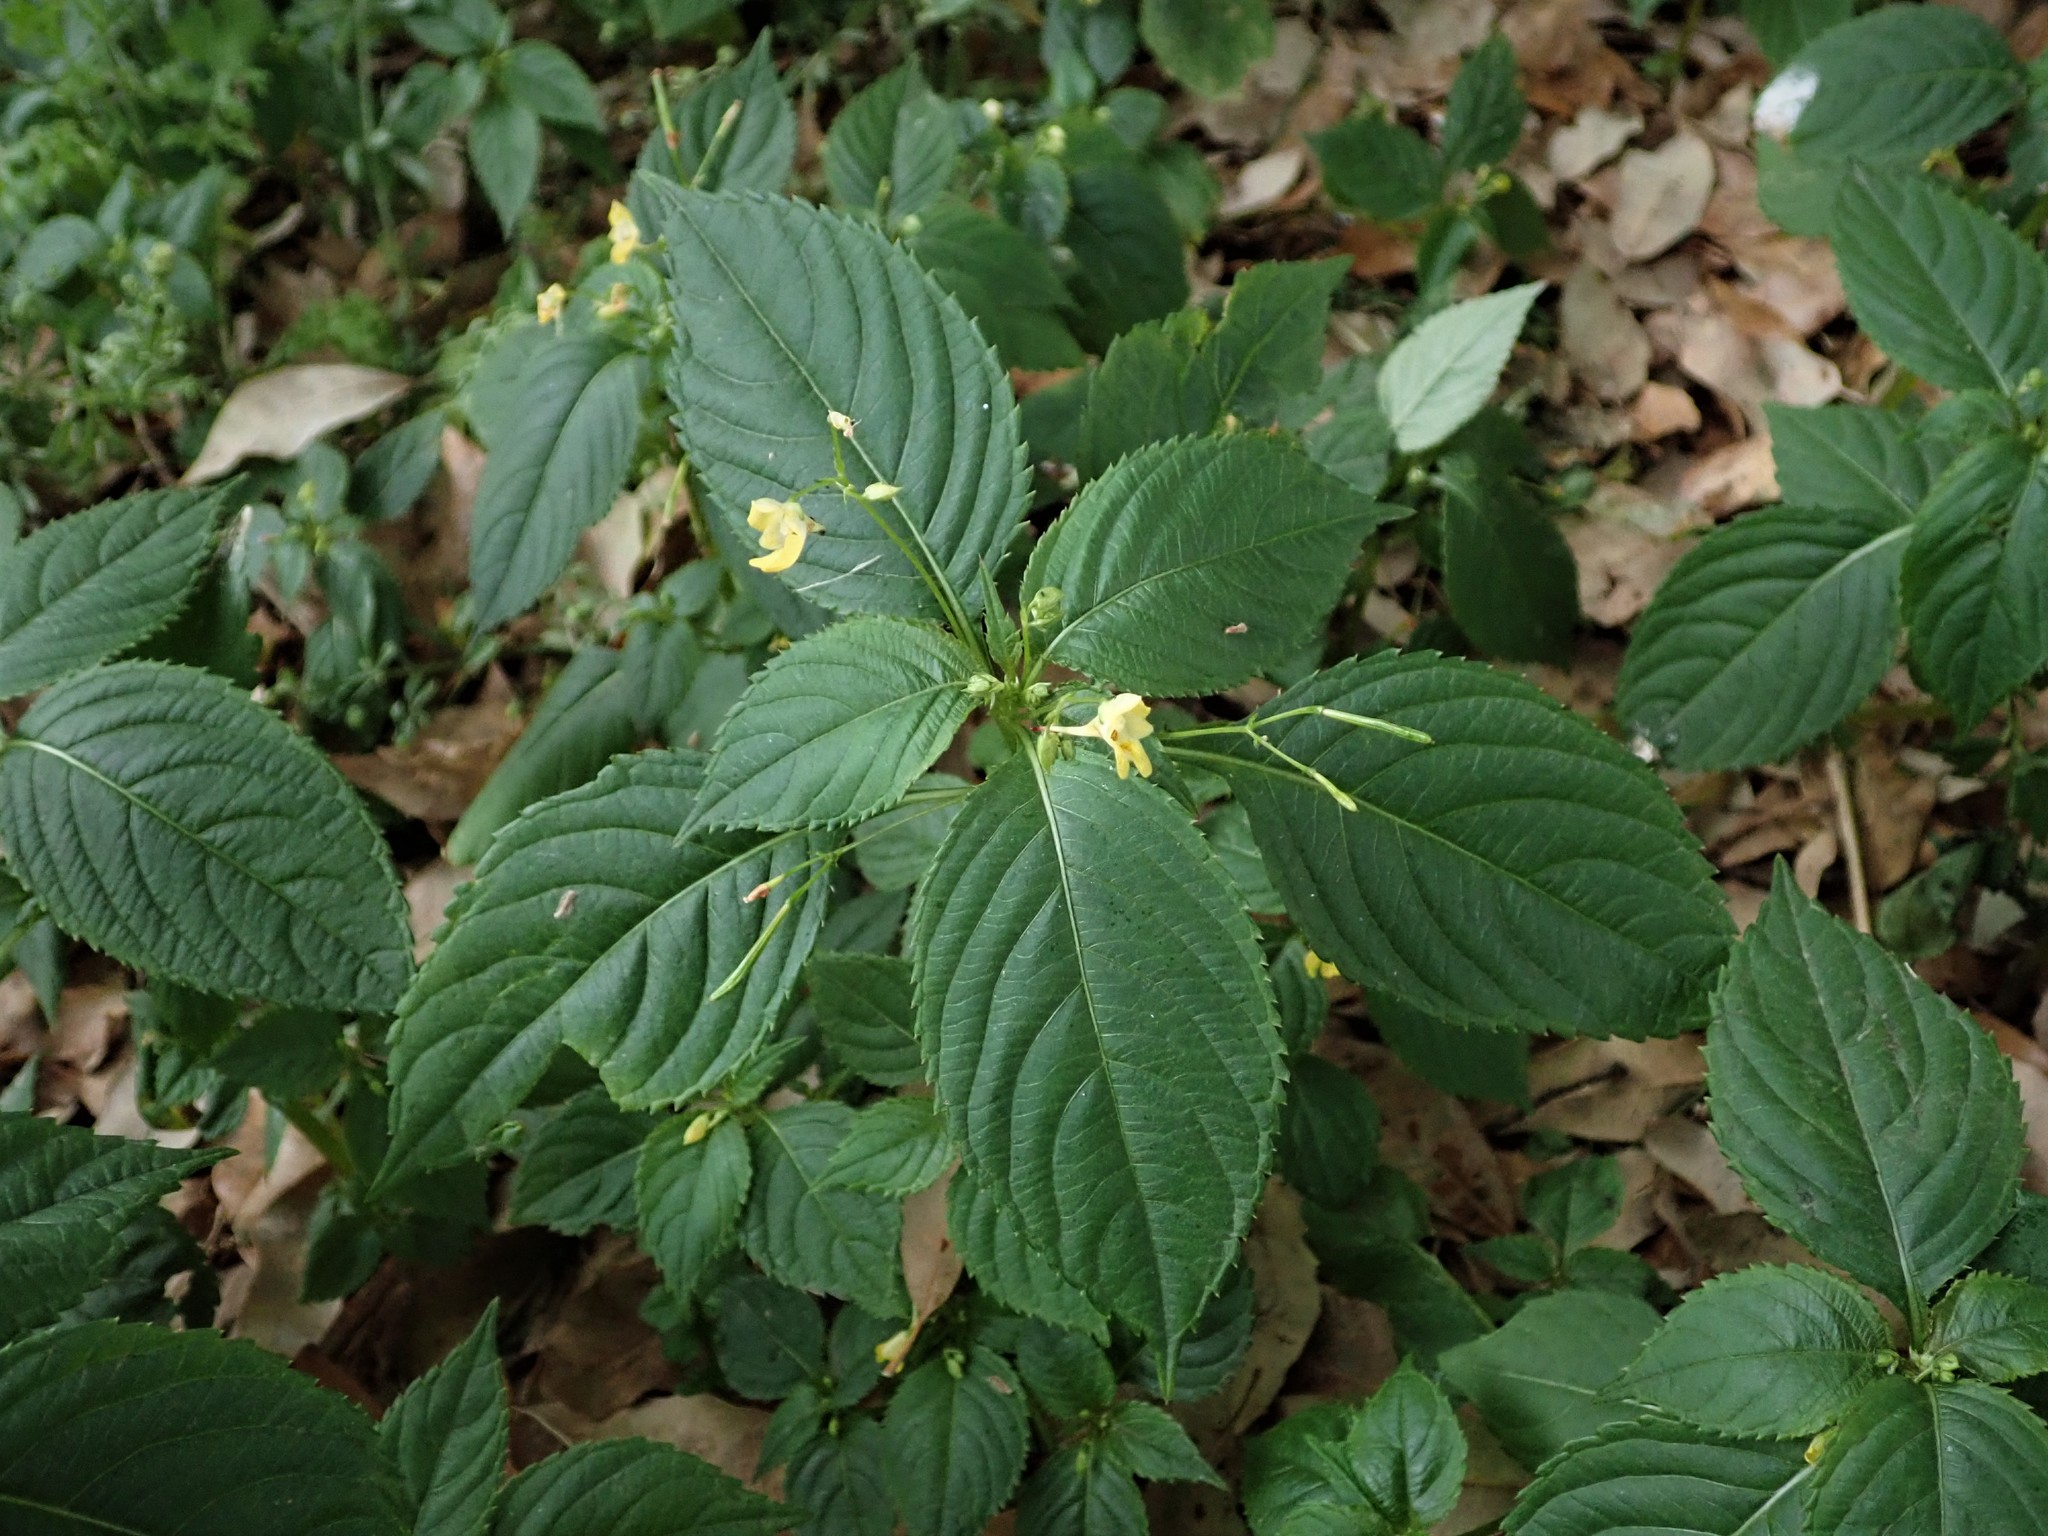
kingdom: Plantae
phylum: Tracheophyta
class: Magnoliopsida
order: Ericales
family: Balsaminaceae
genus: Impatiens
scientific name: Impatiens parviflora
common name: Small balsam
